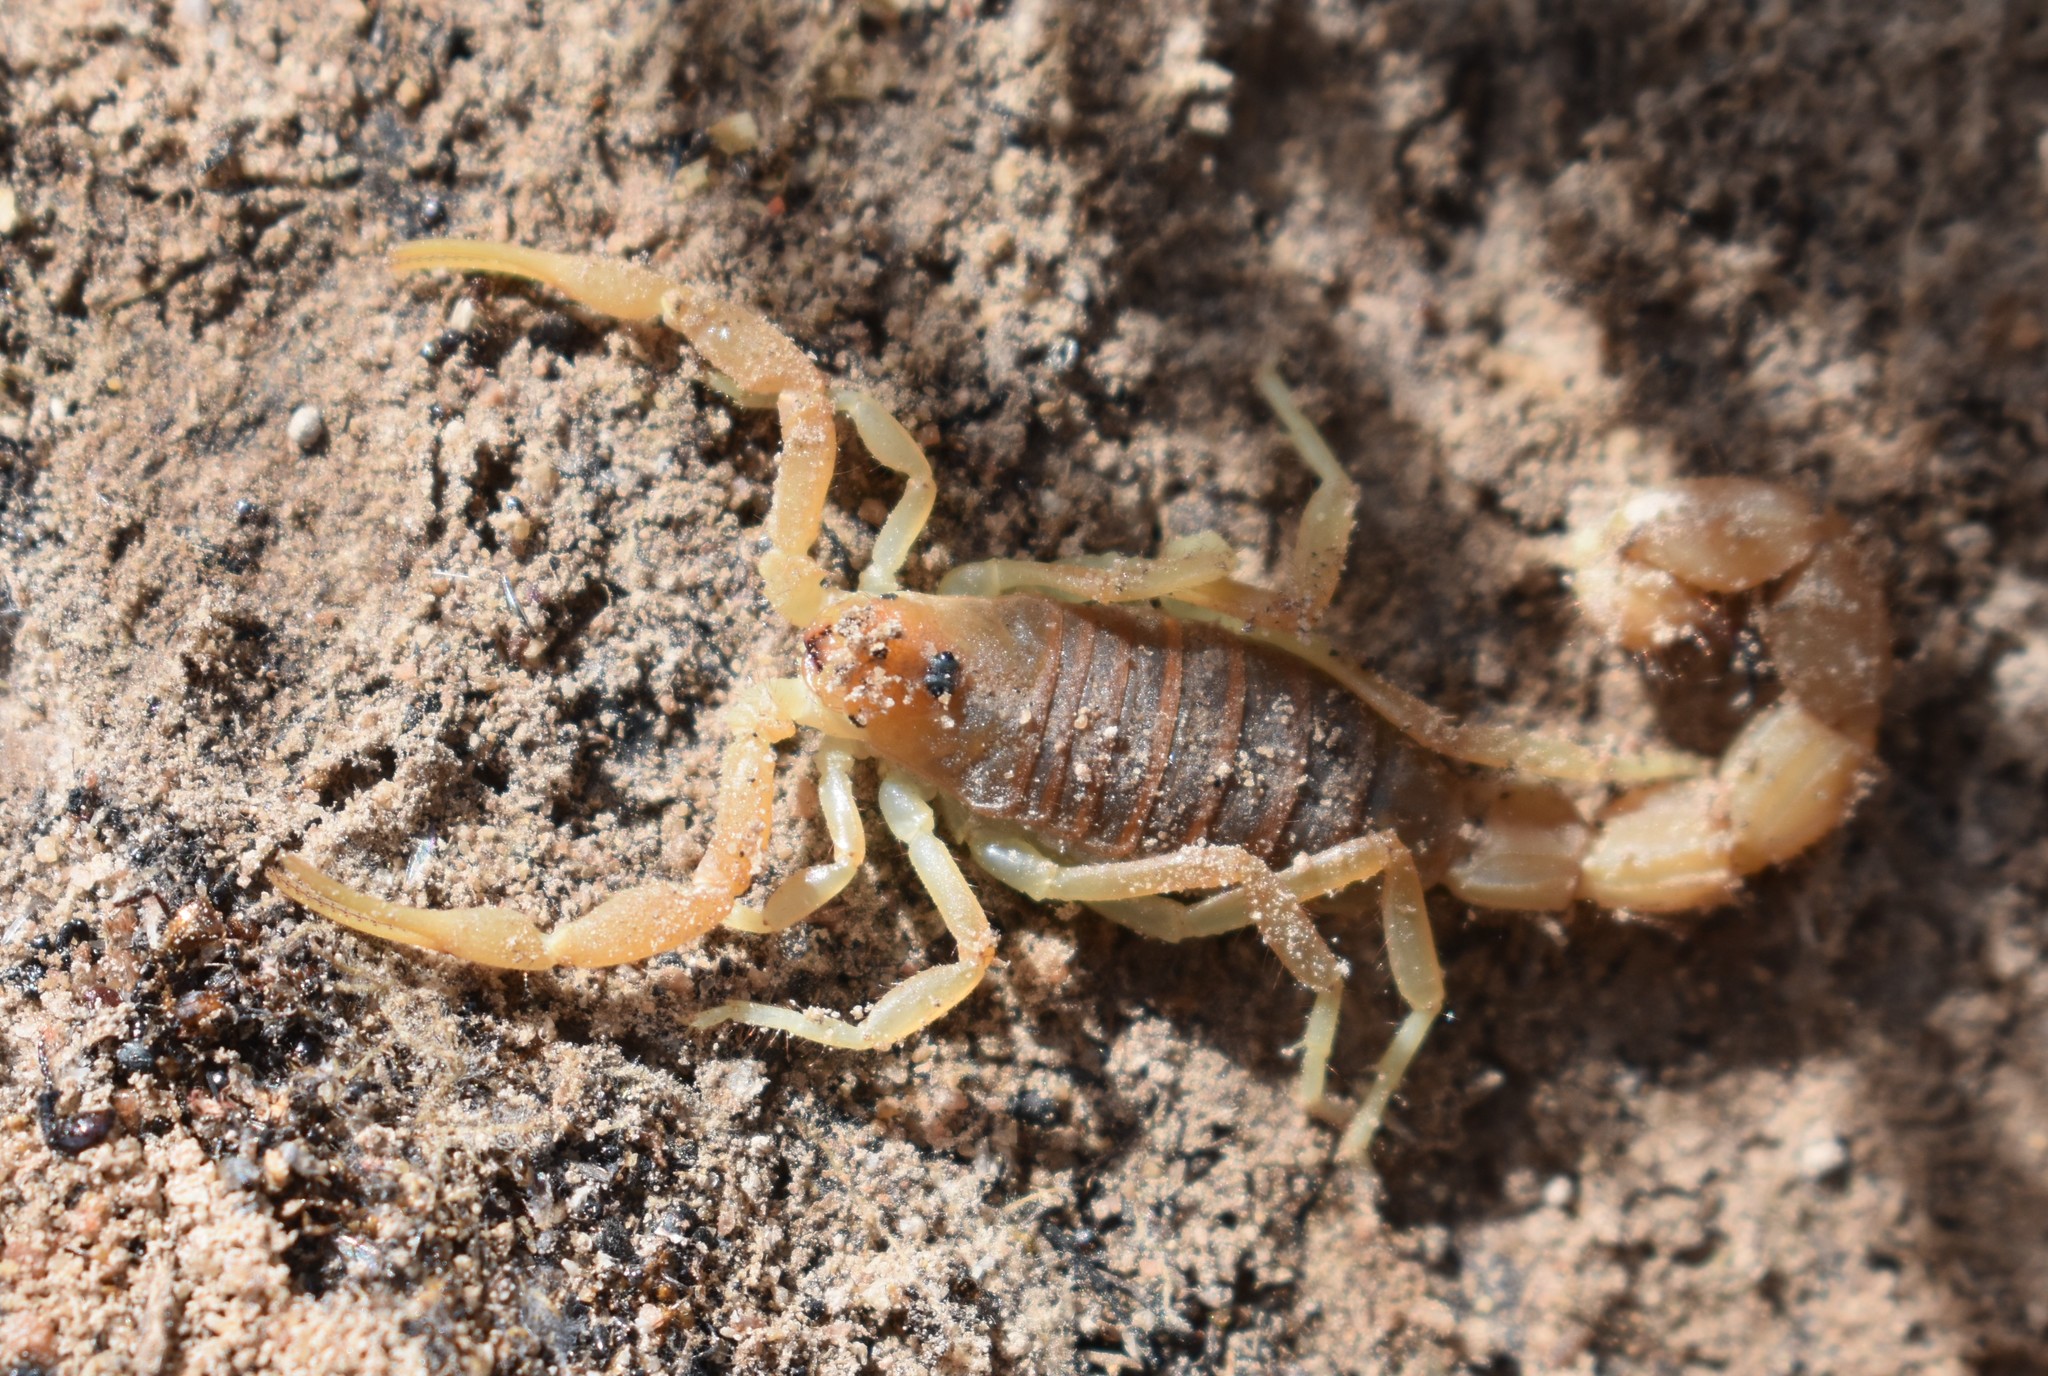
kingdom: Animalia
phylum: Arthropoda
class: Arachnida
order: Scorpiones
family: Buthidae
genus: Parabuthus
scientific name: Parabuthus planicauda
